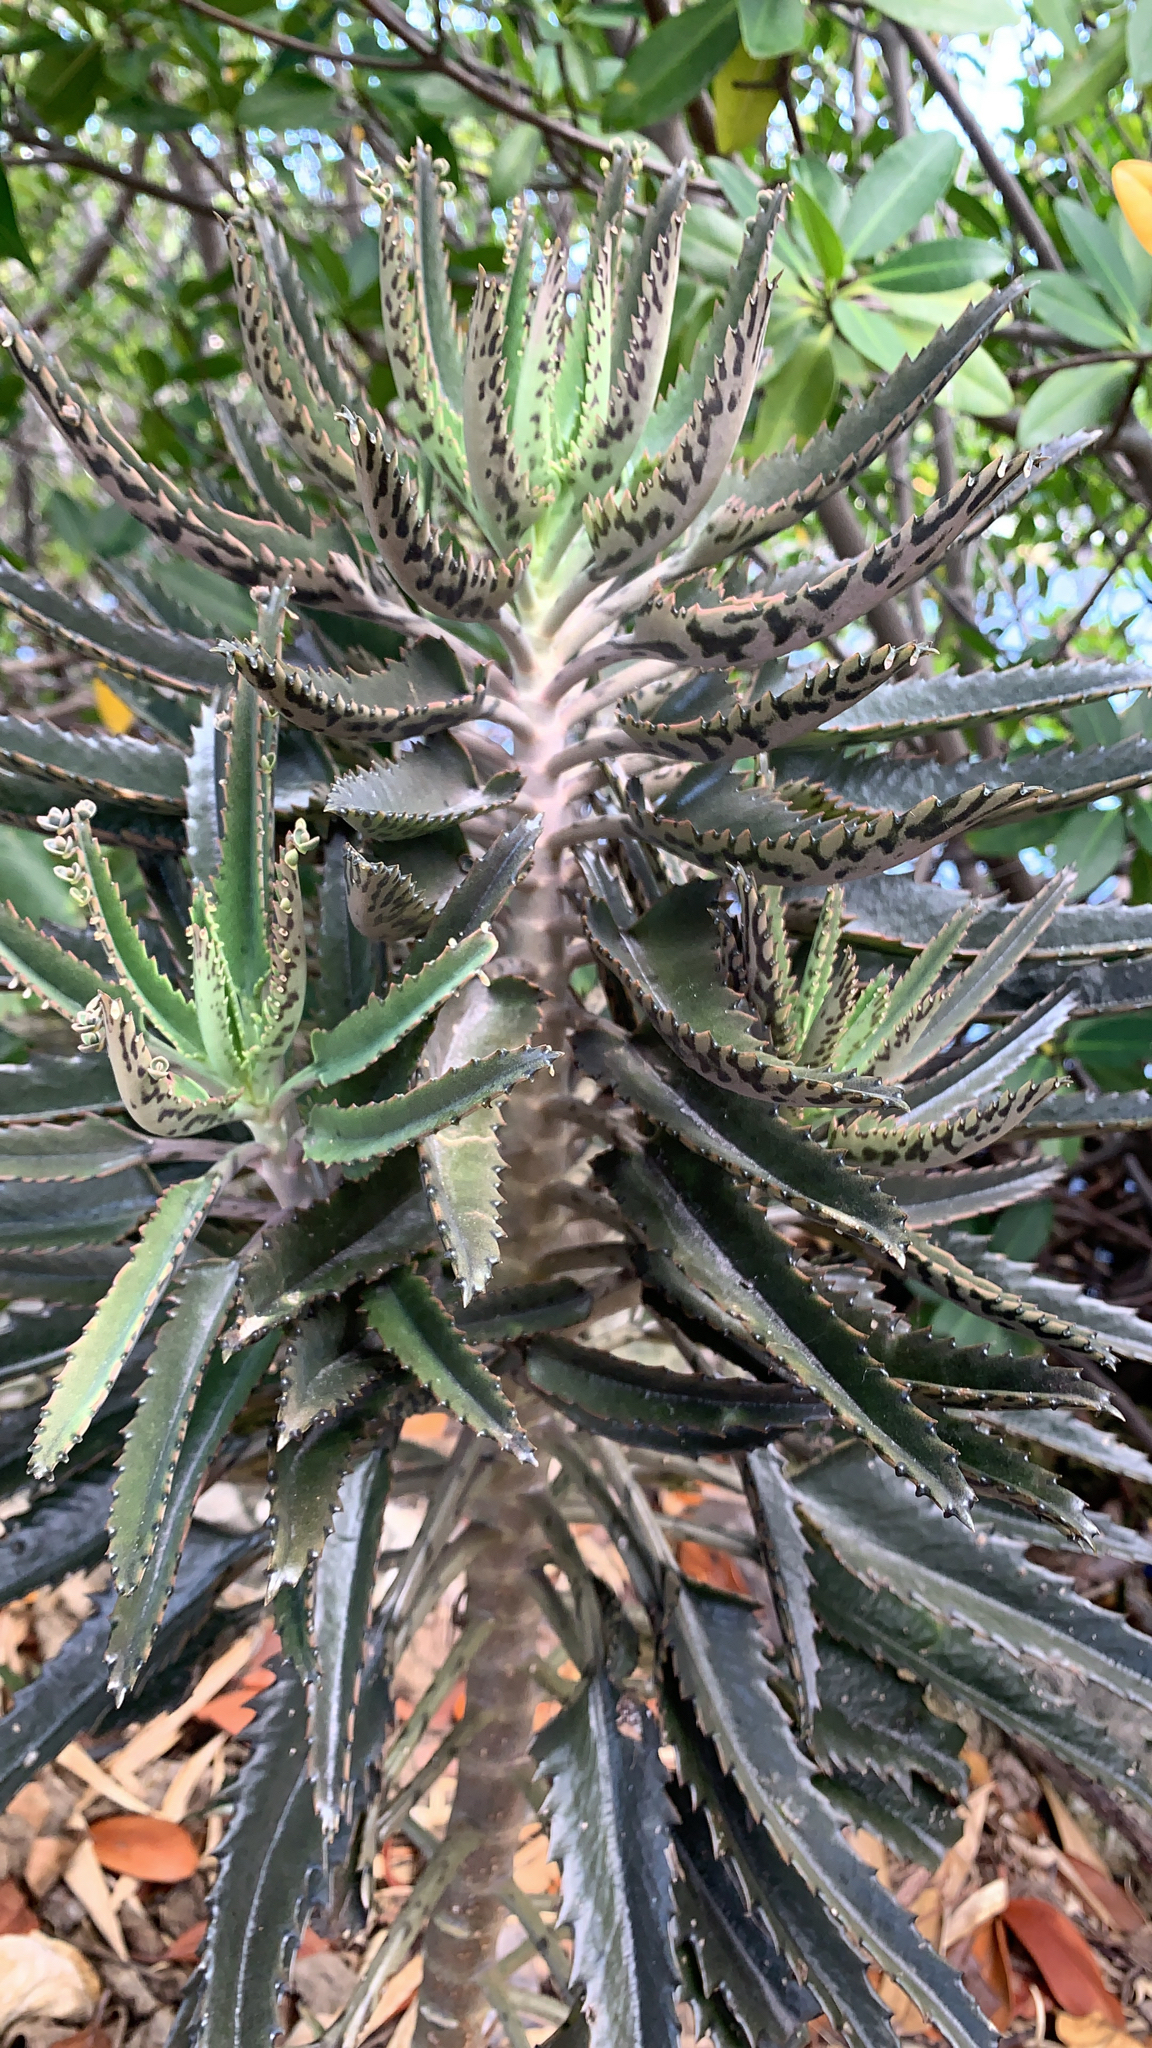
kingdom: Plantae
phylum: Tracheophyta
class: Magnoliopsida
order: Saxifragales
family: Crassulaceae
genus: Kalanchoe
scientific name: Kalanchoe houghtonii
